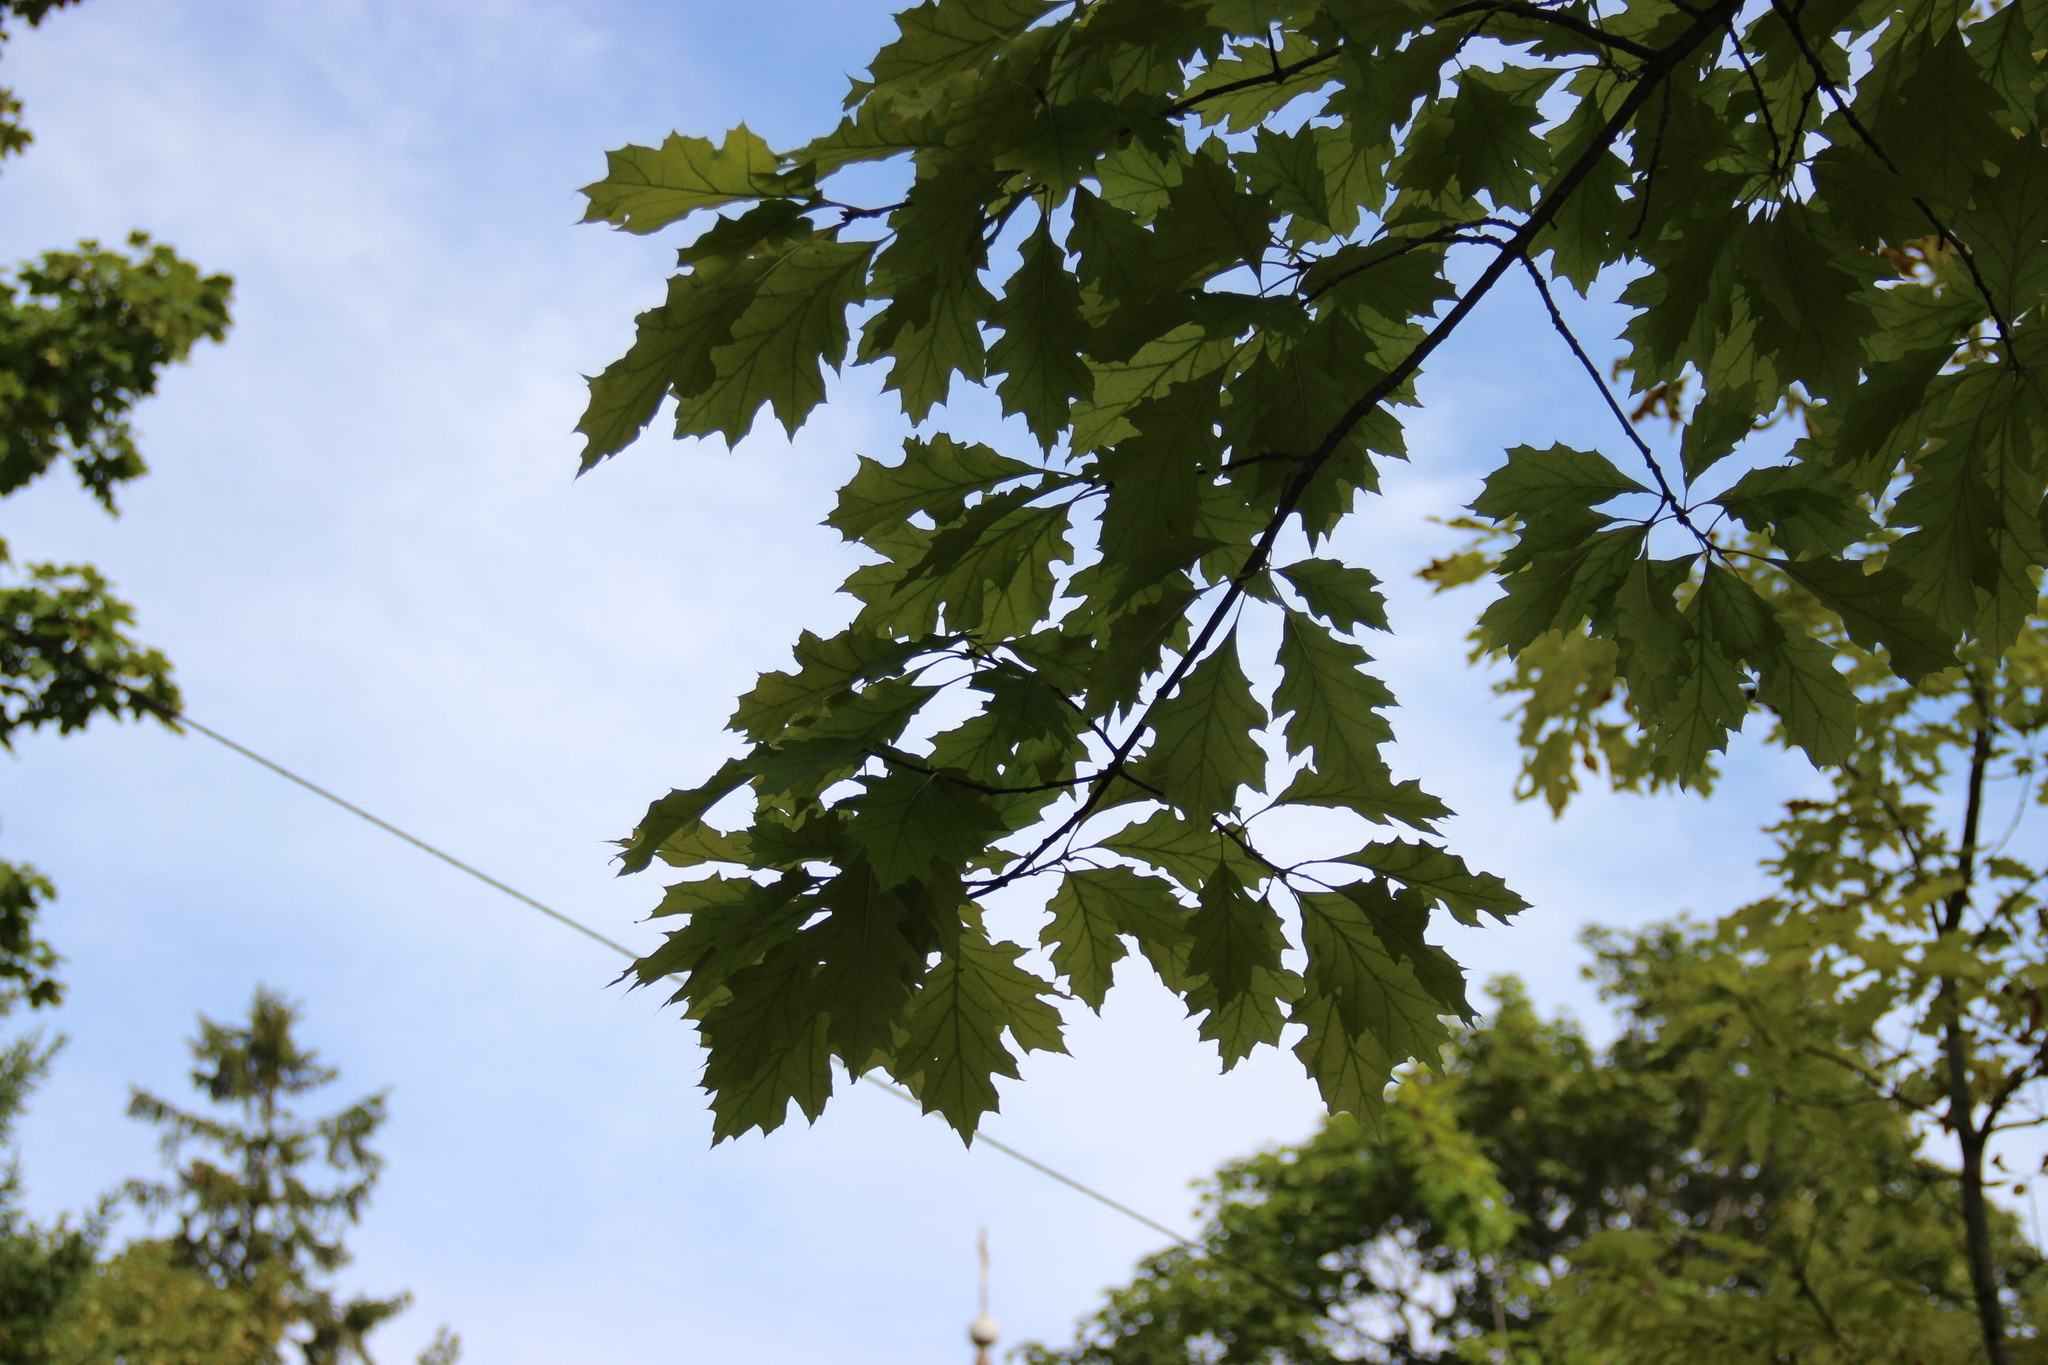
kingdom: Plantae
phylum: Tracheophyta
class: Magnoliopsida
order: Fagales
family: Fagaceae
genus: Quercus
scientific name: Quercus rubra
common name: Red oak
